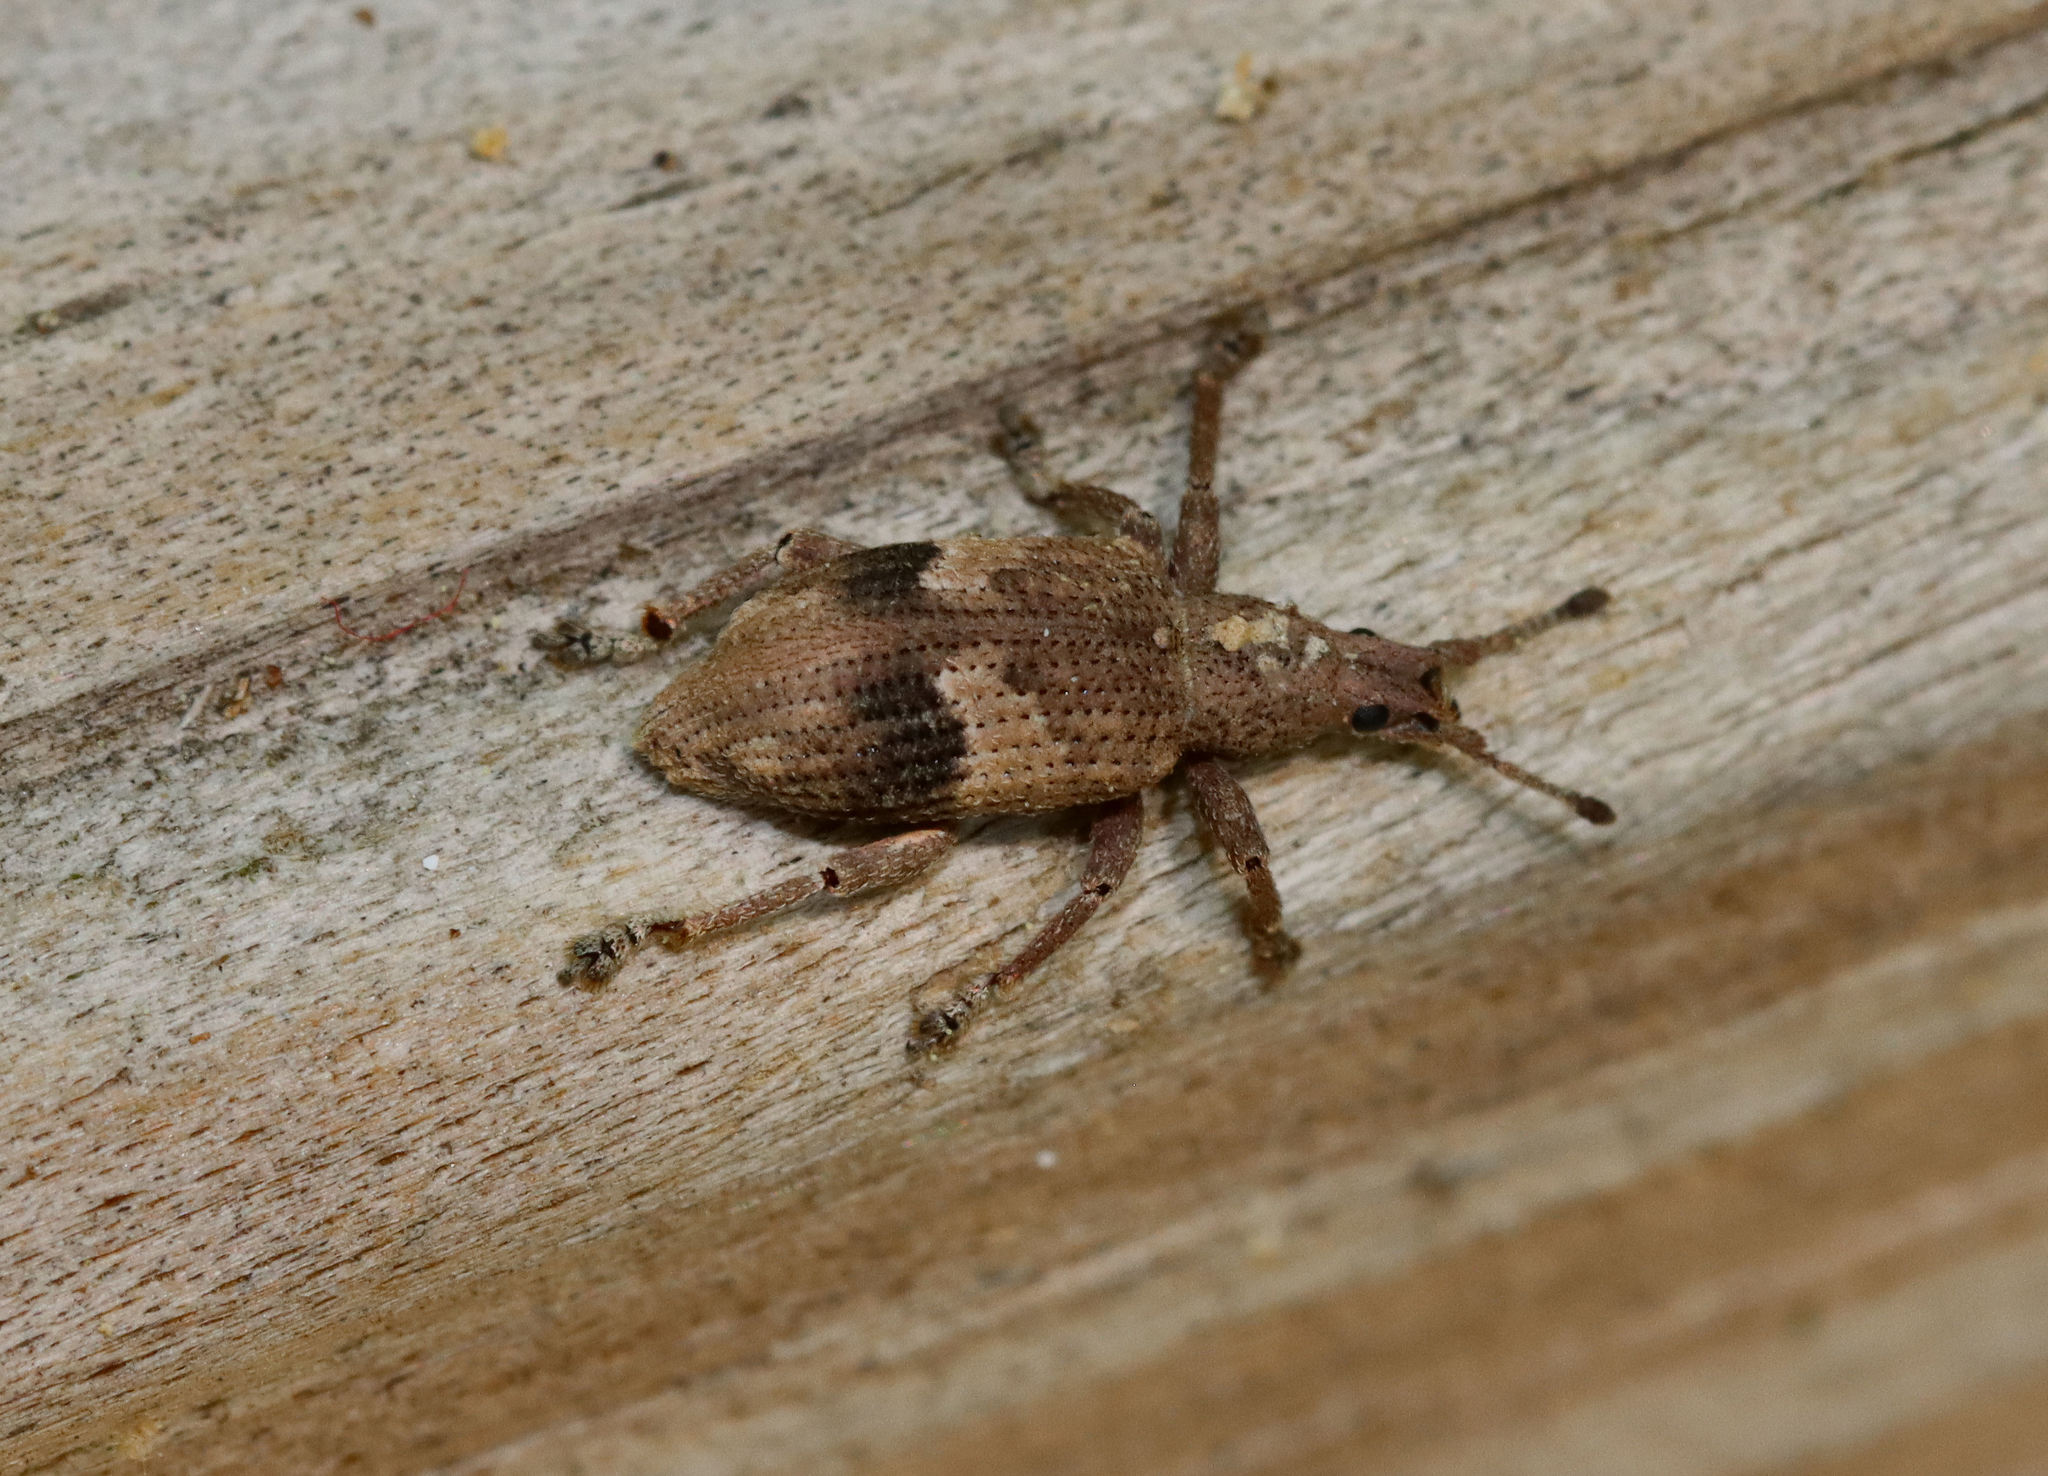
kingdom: Animalia
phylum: Arthropoda
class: Insecta
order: Coleoptera
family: Curculionidae
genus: Brachystylus
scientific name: Brachystylus
